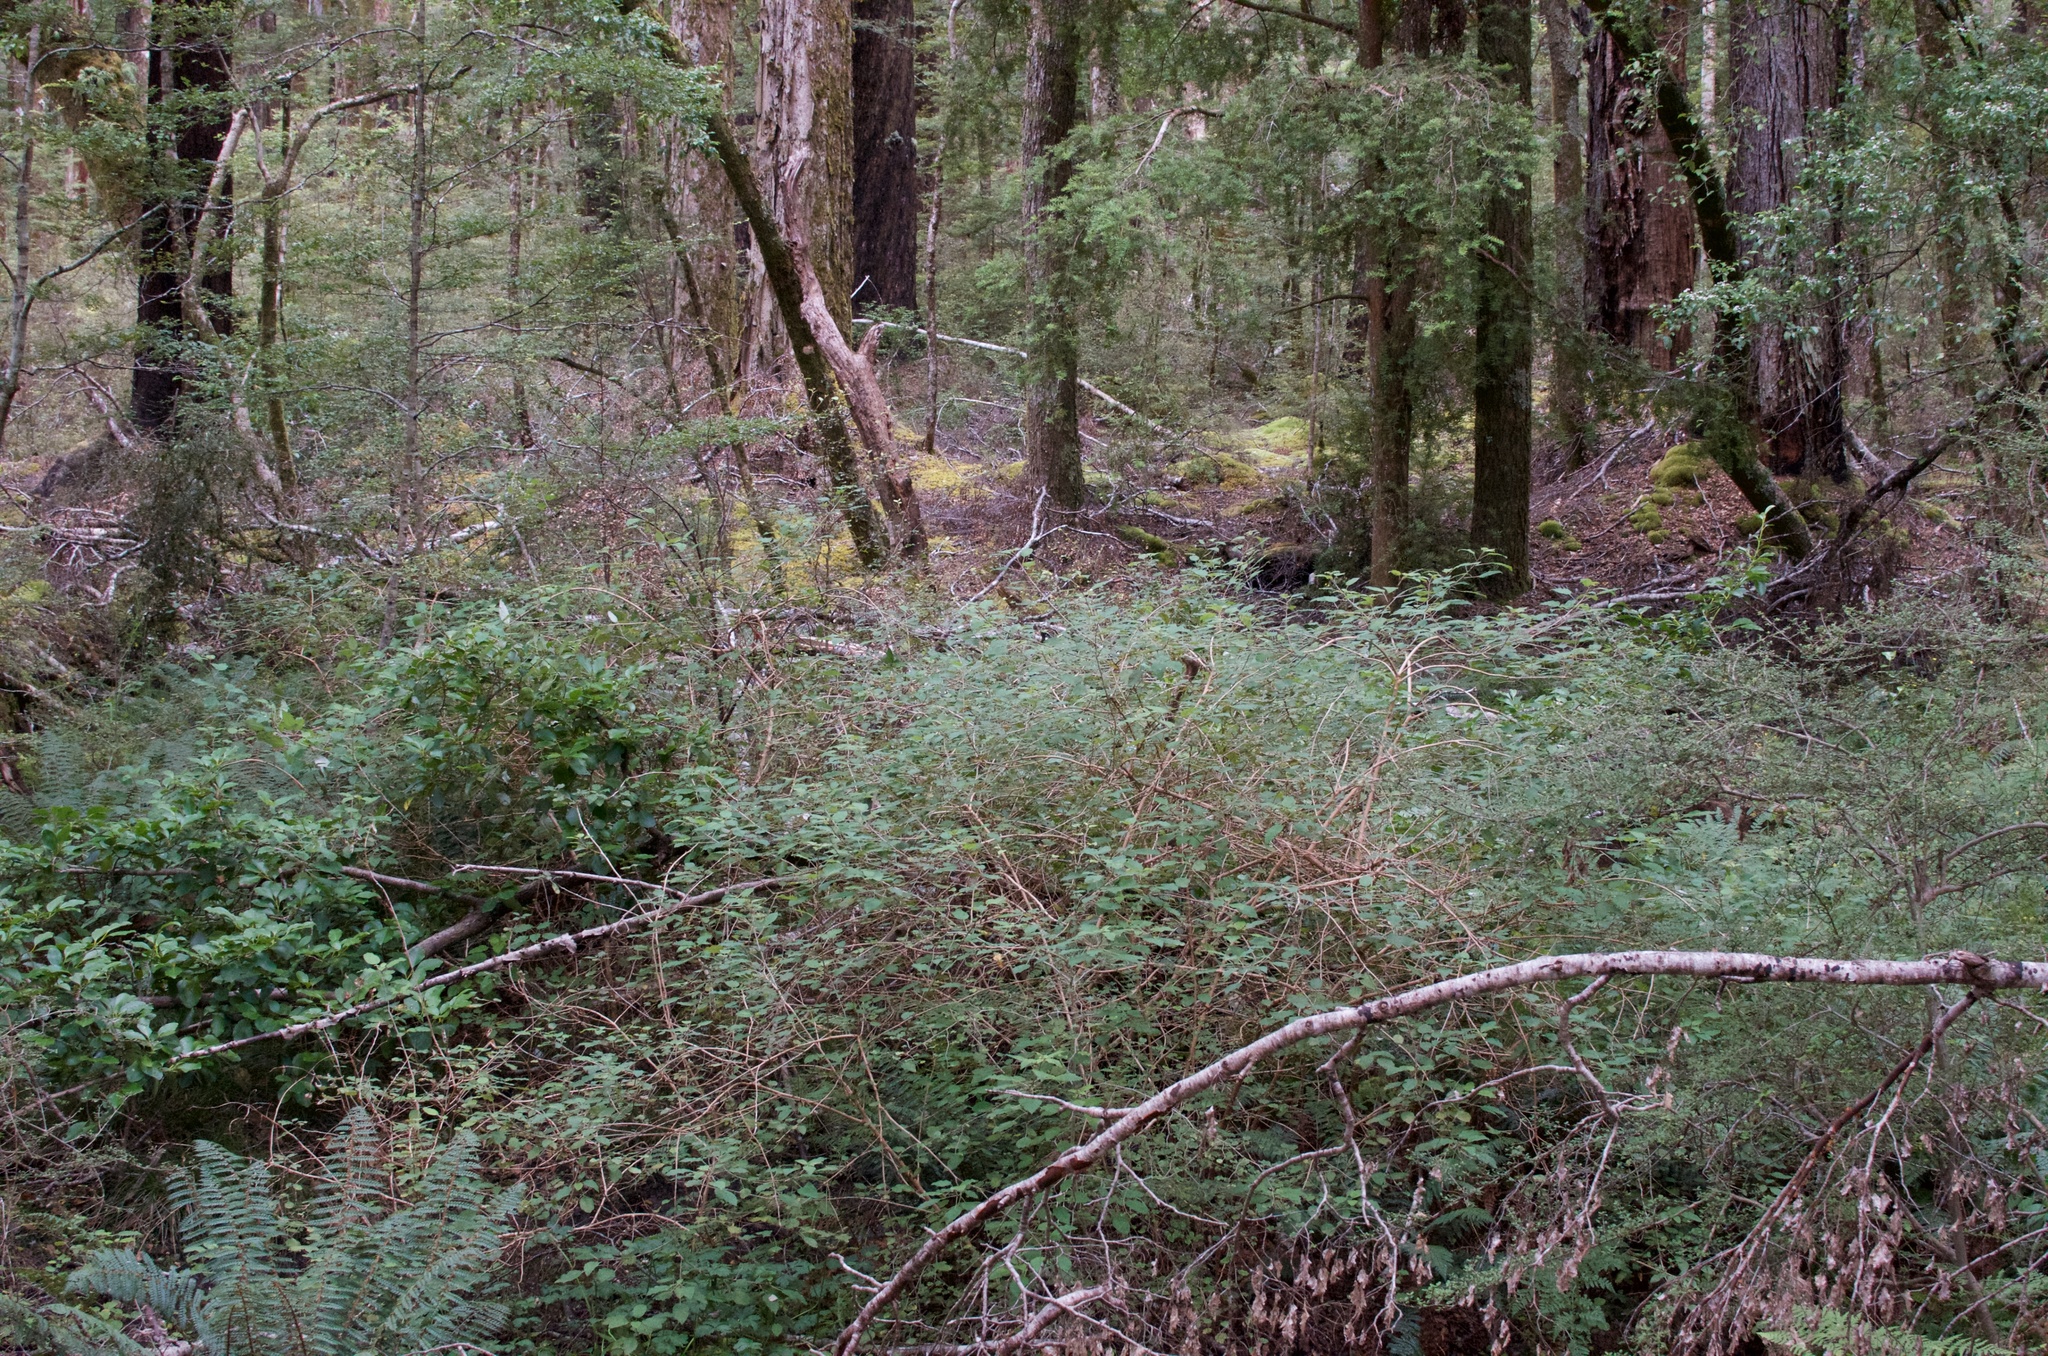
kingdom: Plantae
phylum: Tracheophyta
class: Magnoliopsida
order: Myrtales
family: Onagraceae
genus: Fuchsia
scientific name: Fuchsia colensoi
